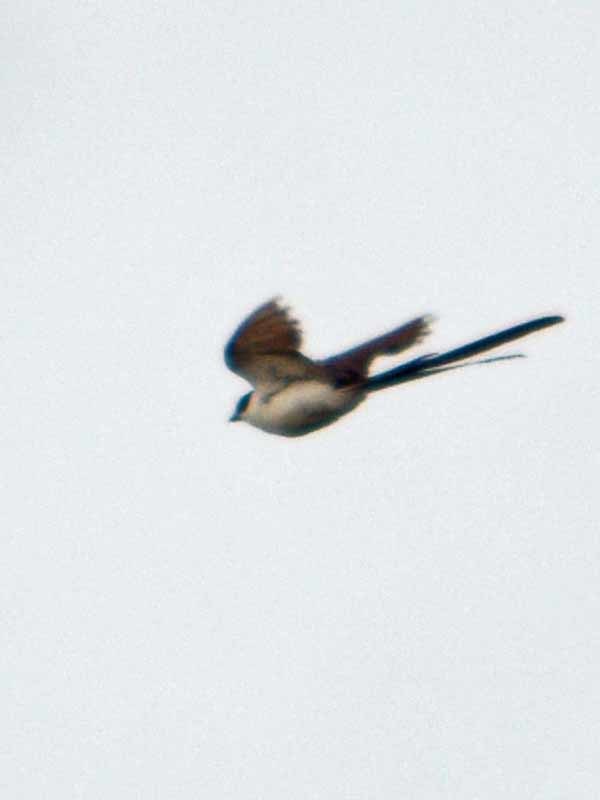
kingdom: Animalia
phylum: Chordata
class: Aves
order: Passeriformes
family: Tyrannidae
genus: Tyrannus
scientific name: Tyrannus savana
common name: Fork-tailed flycatcher
